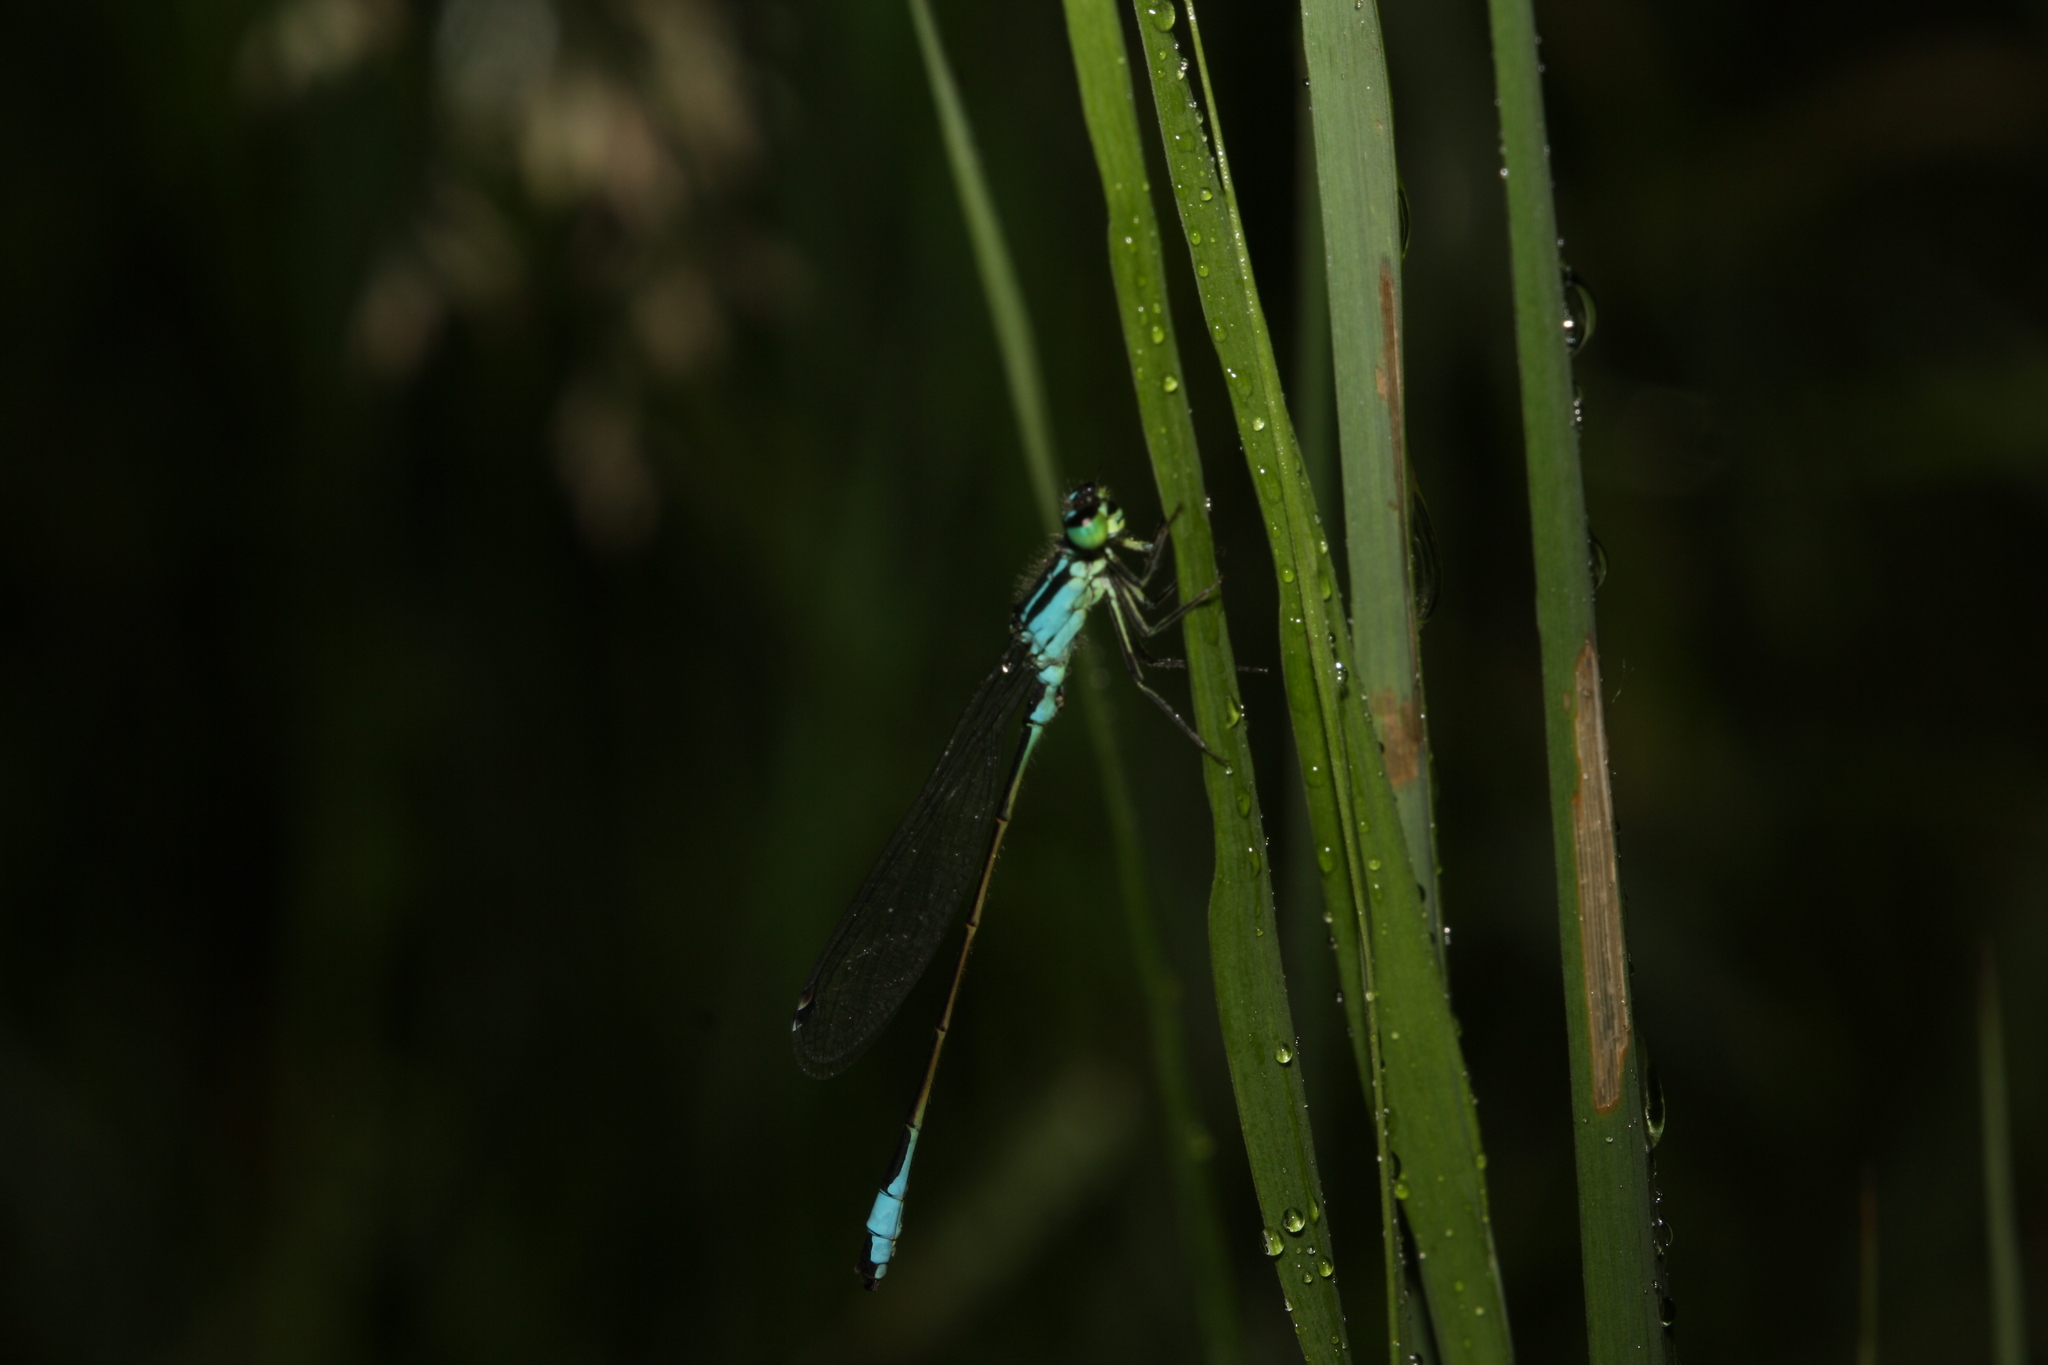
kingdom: Animalia
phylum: Arthropoda
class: Insecta
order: Odonata
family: Coenagrionidae
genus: Ischnura
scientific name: Ischnura elegans
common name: Blue-tailed damselfly
